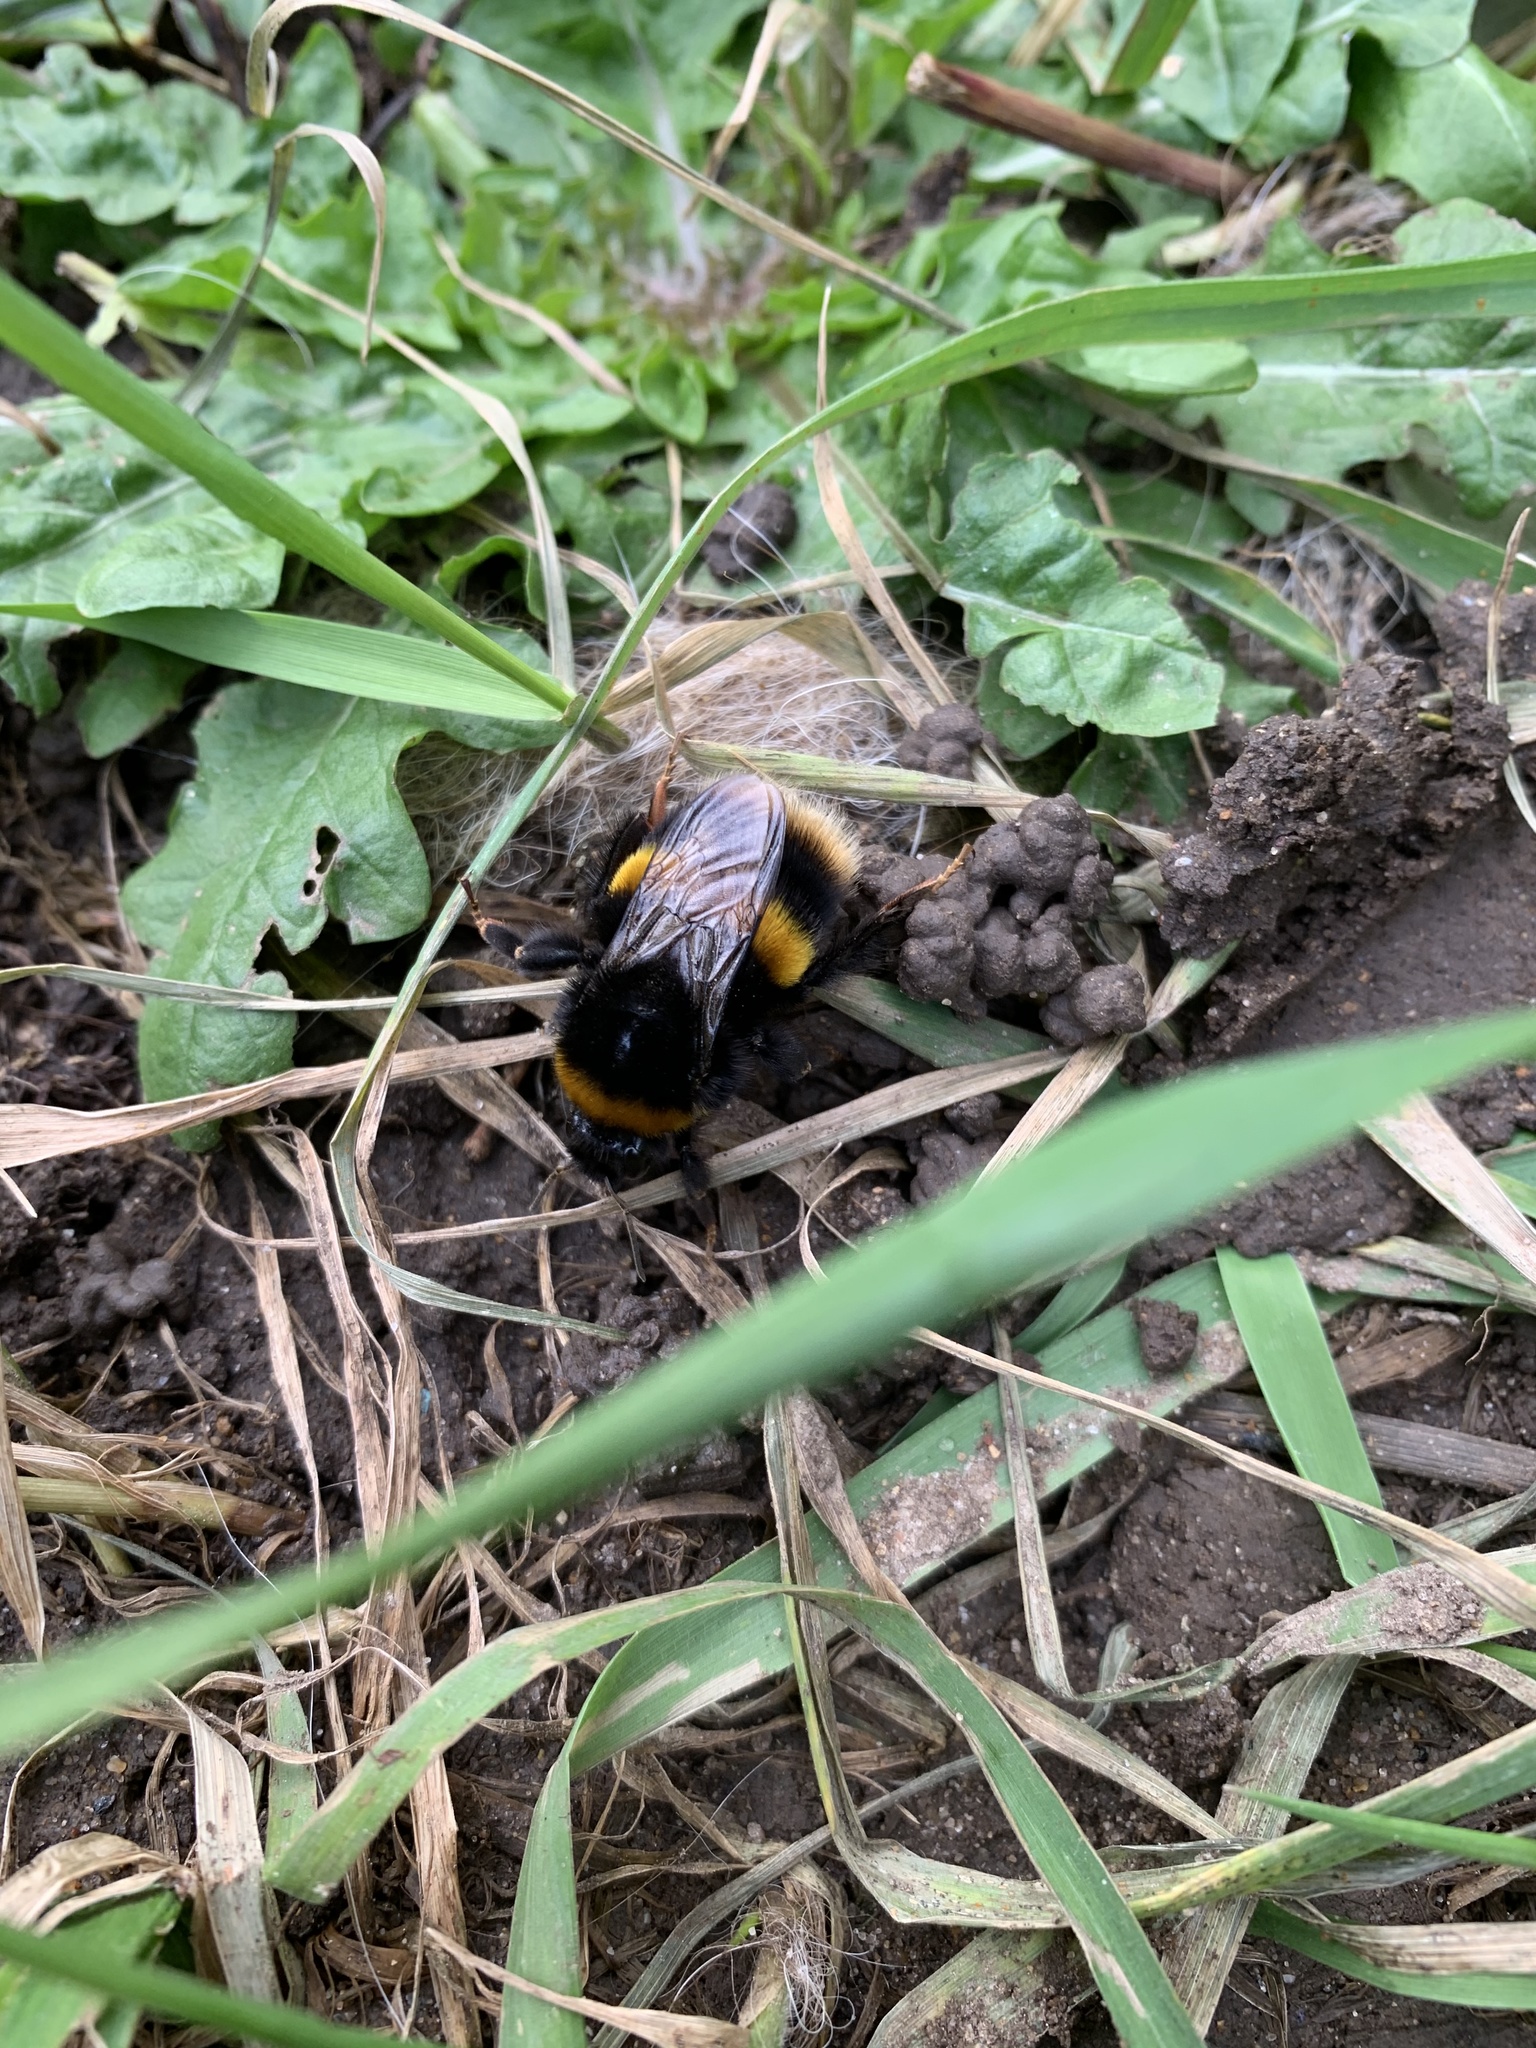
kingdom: Animalia
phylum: Arthropoda
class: Insecta
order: Hymenoptera
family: Apidae
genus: Bombus
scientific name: Bombus terrestris
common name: Buff-tailed bumblebee
